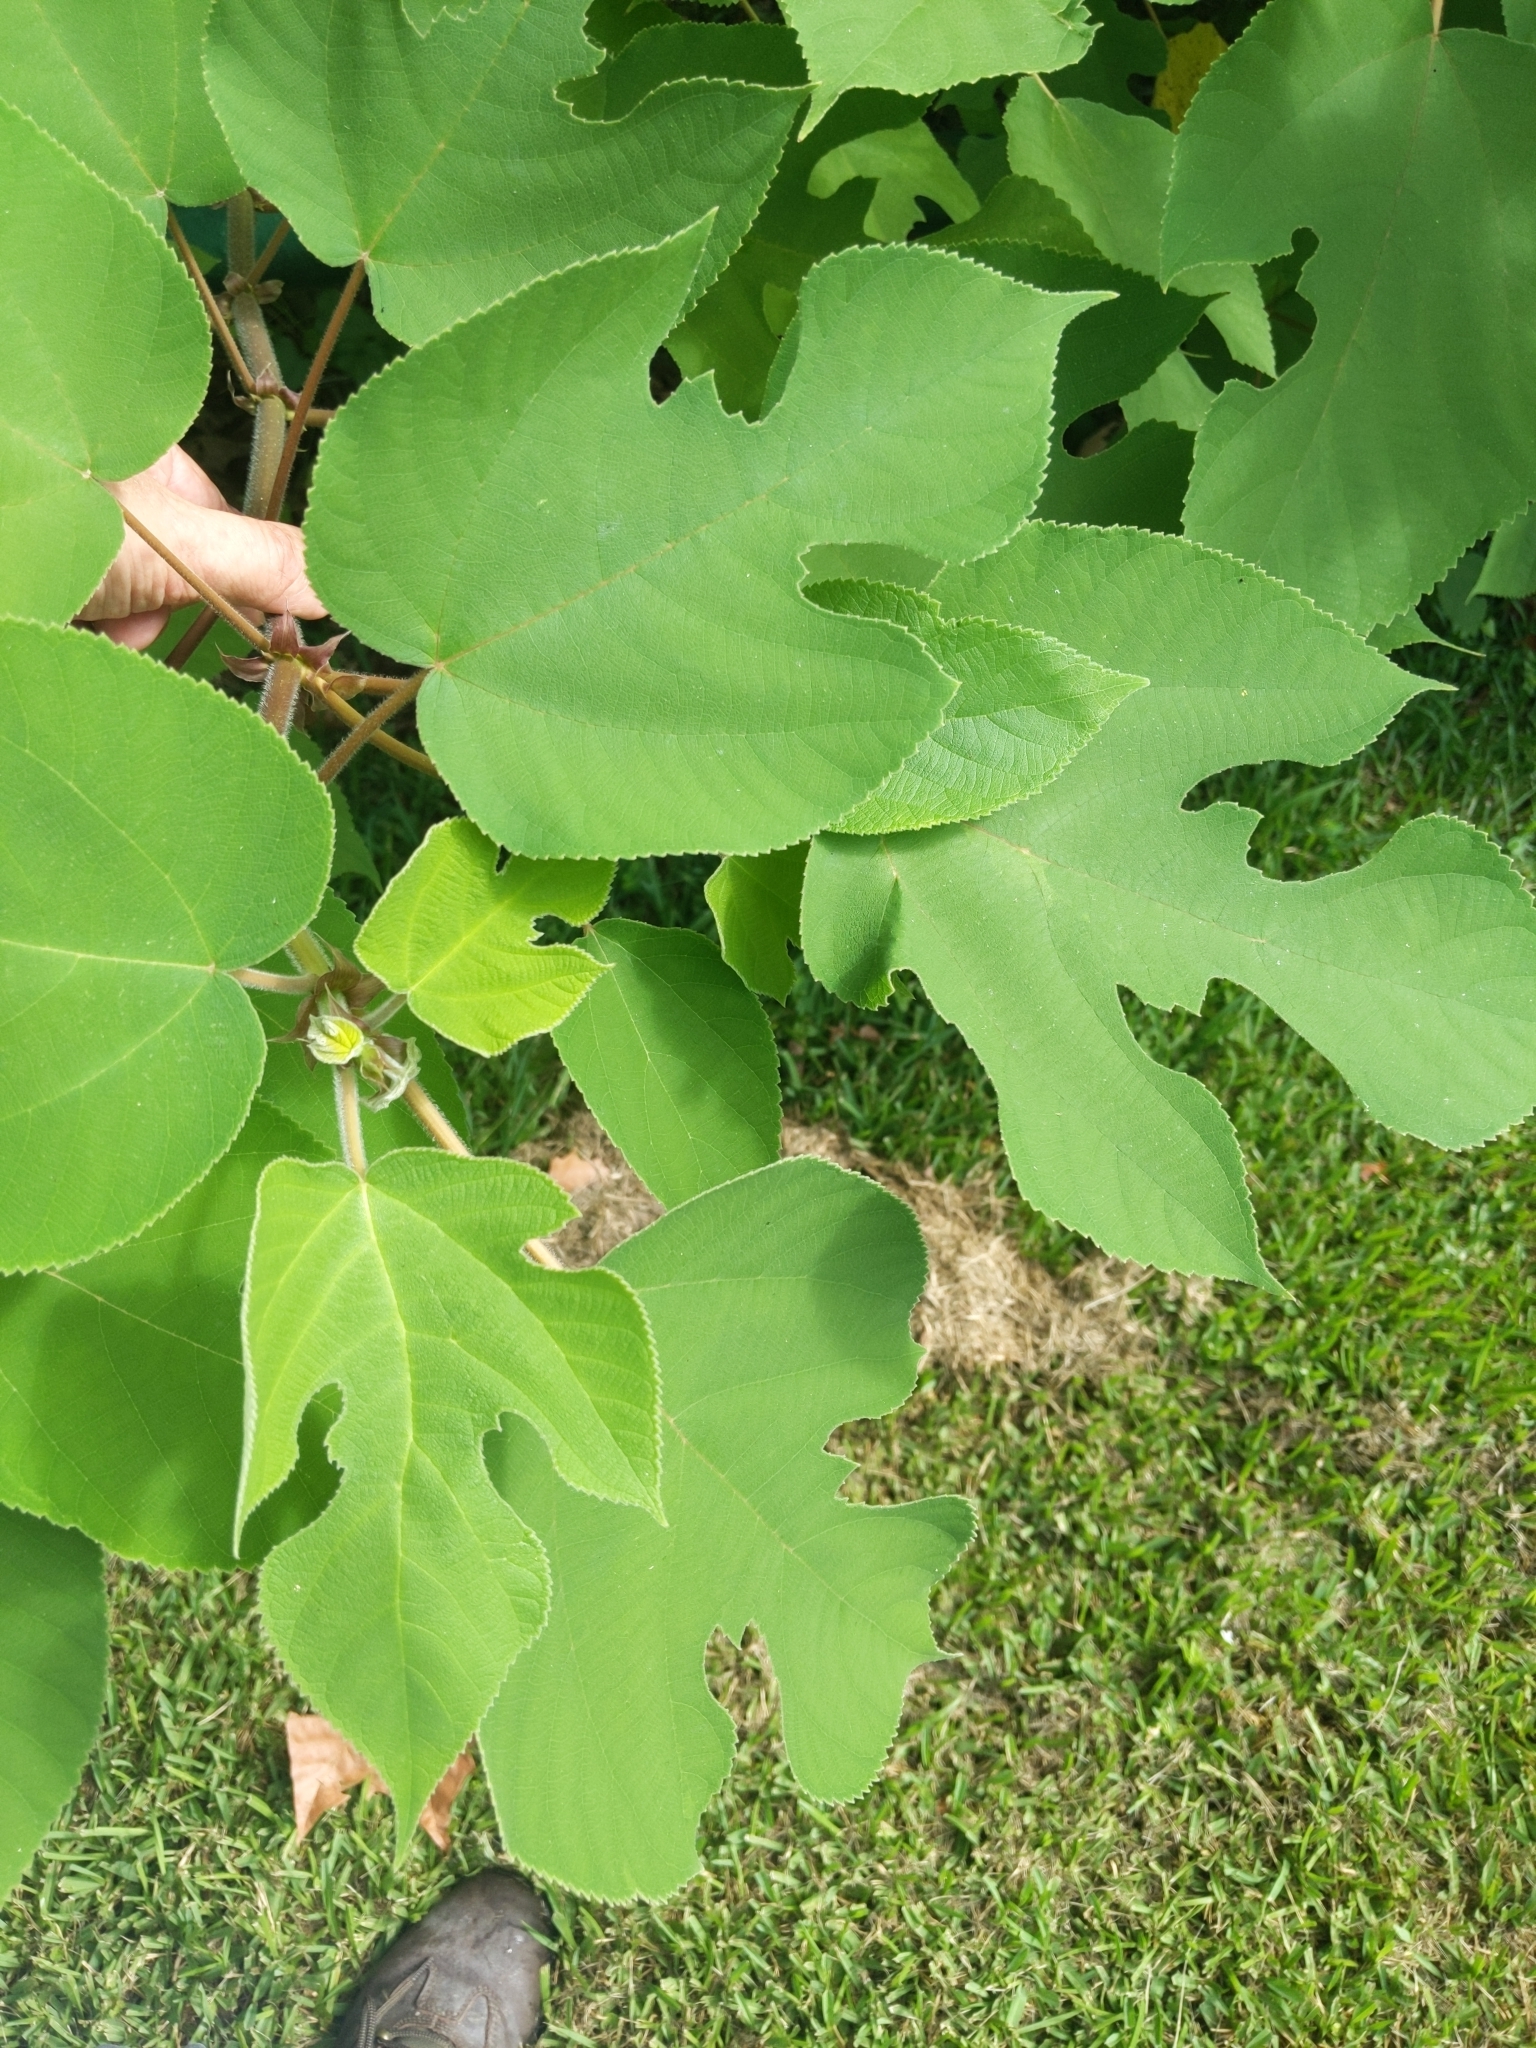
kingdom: Plantae
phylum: Tracheophyta
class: Magnoliopsida
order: Rosales
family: Moraceae
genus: Broussonetia
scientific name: Broussonetia papyrifera
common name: Paper mulberry
